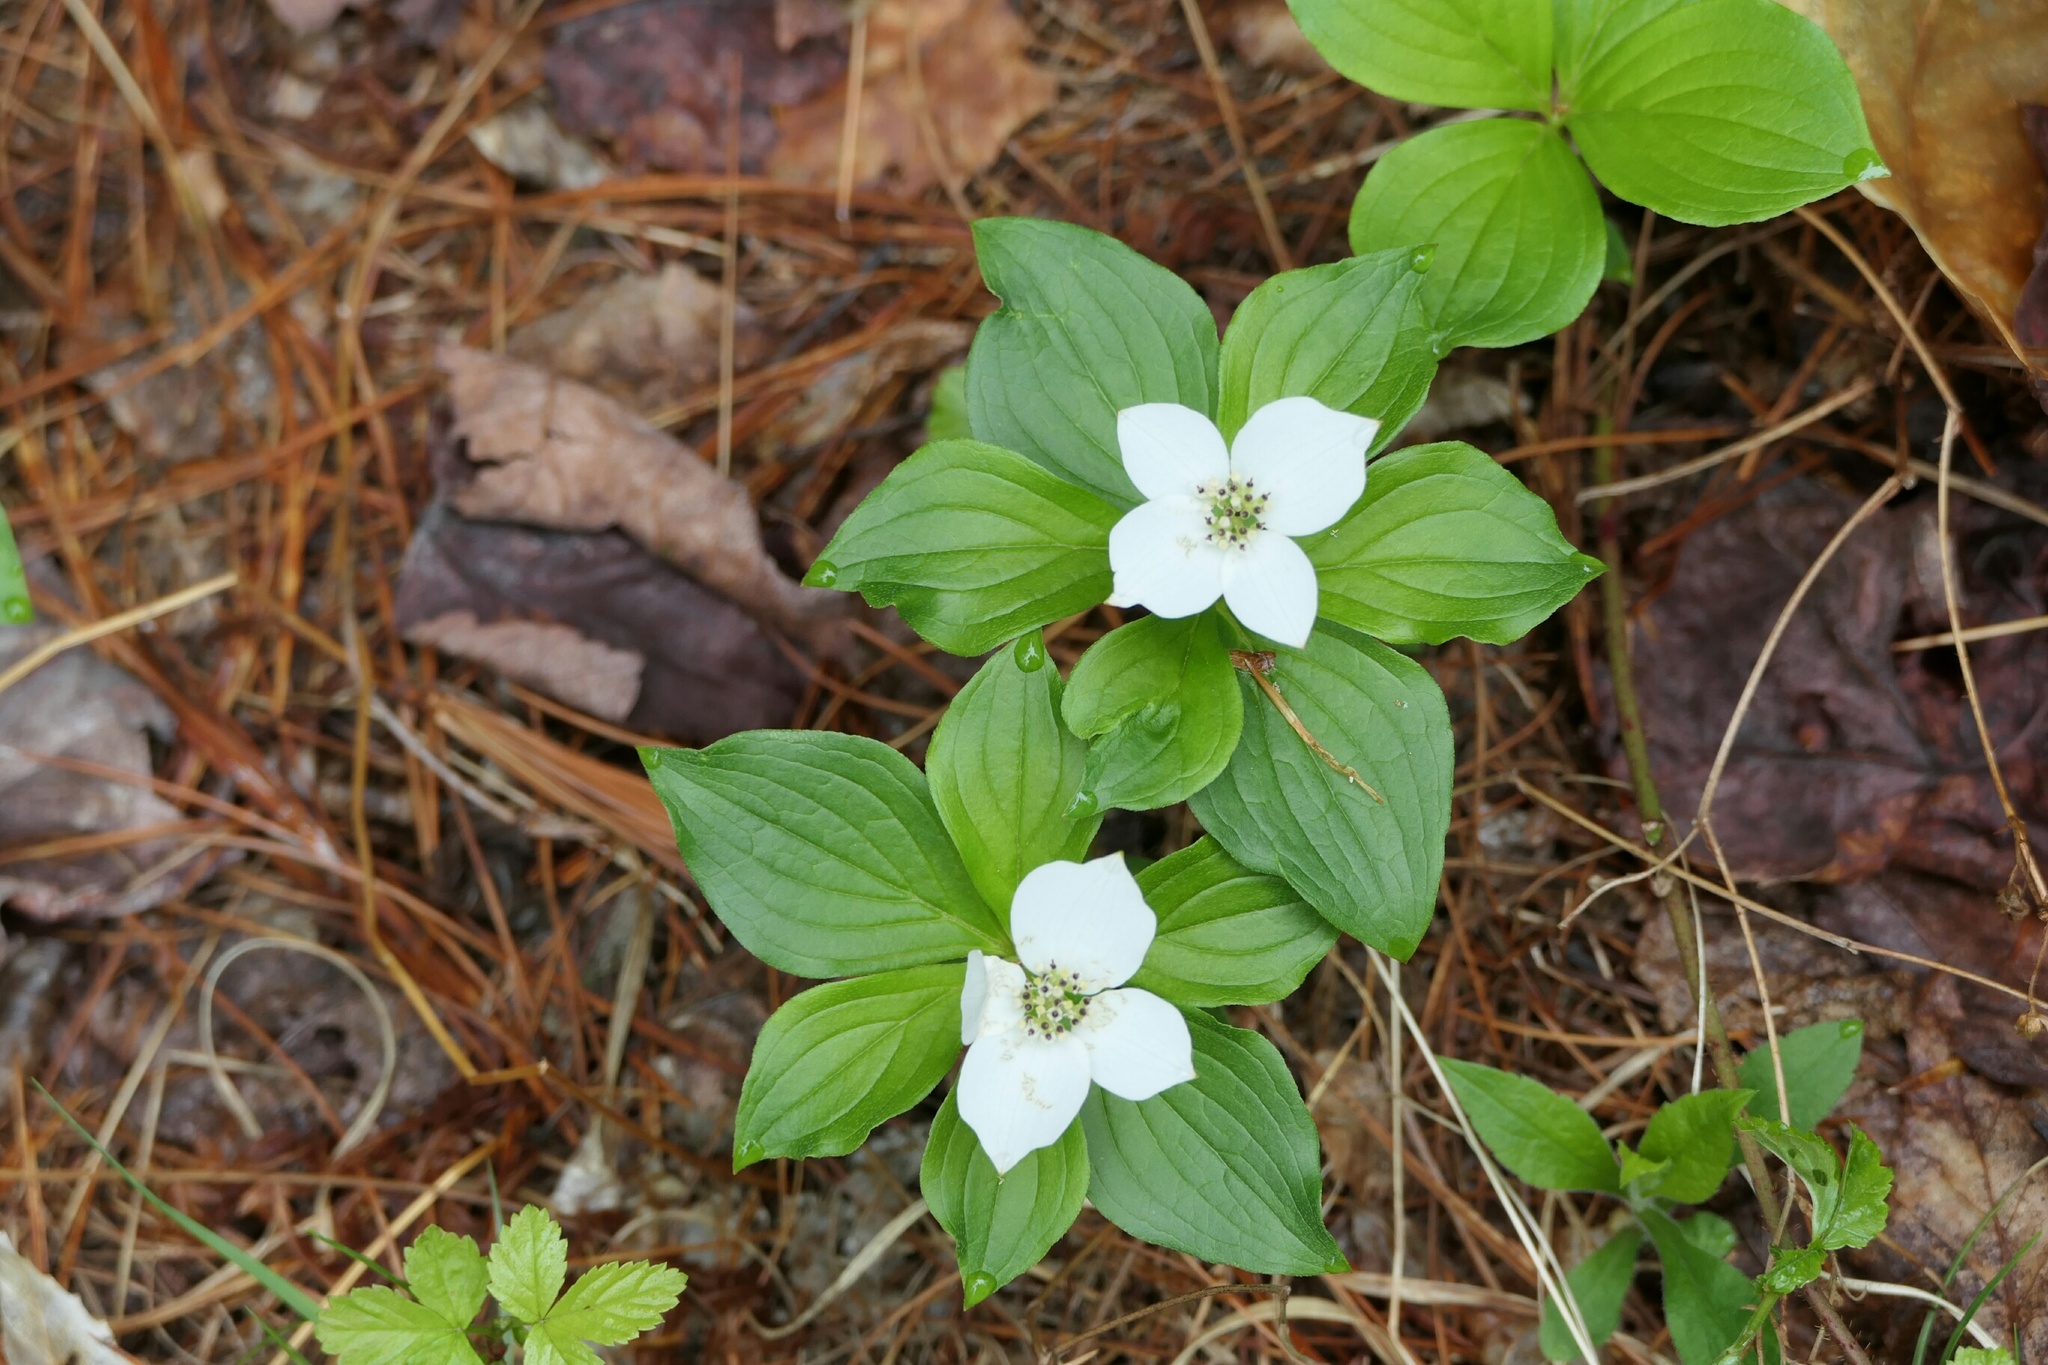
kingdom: Plantae
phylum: Tracheophyta
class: Magnoliopsida
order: Cornales
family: Cornaceae
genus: Cornus
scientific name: Cornus canadensis
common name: Creeping dogwood
